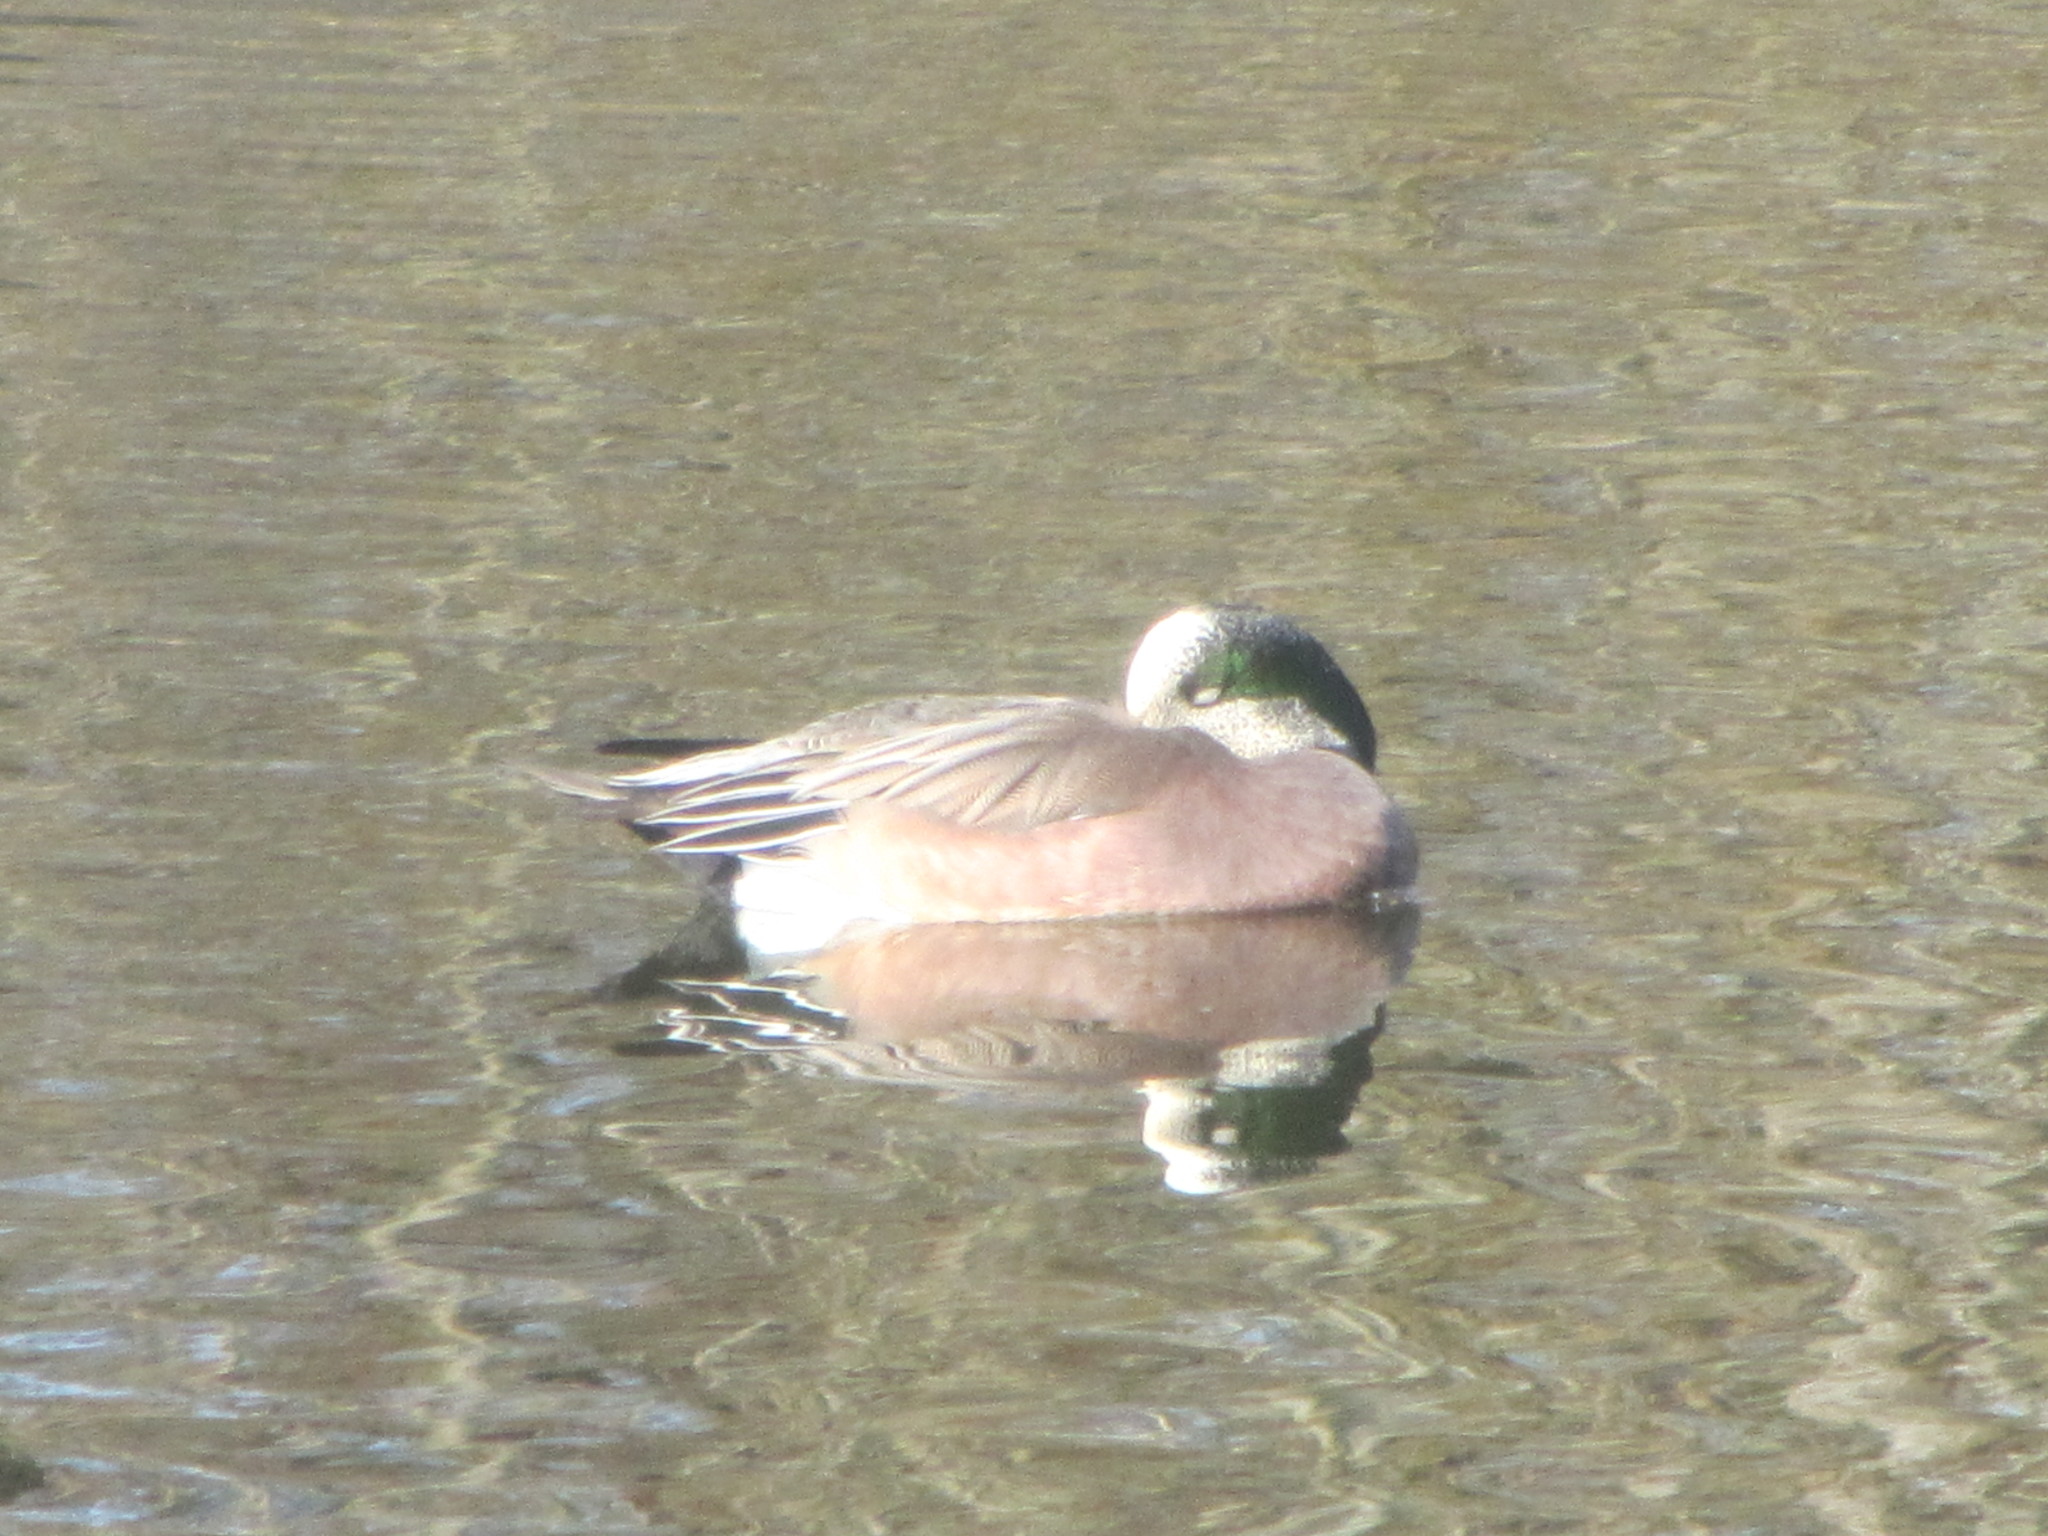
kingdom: Animalia
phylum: Chordata
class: Aves
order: Anseriformes
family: Anatidae
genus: Mareca
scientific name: Mareca americana
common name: American wigeon
